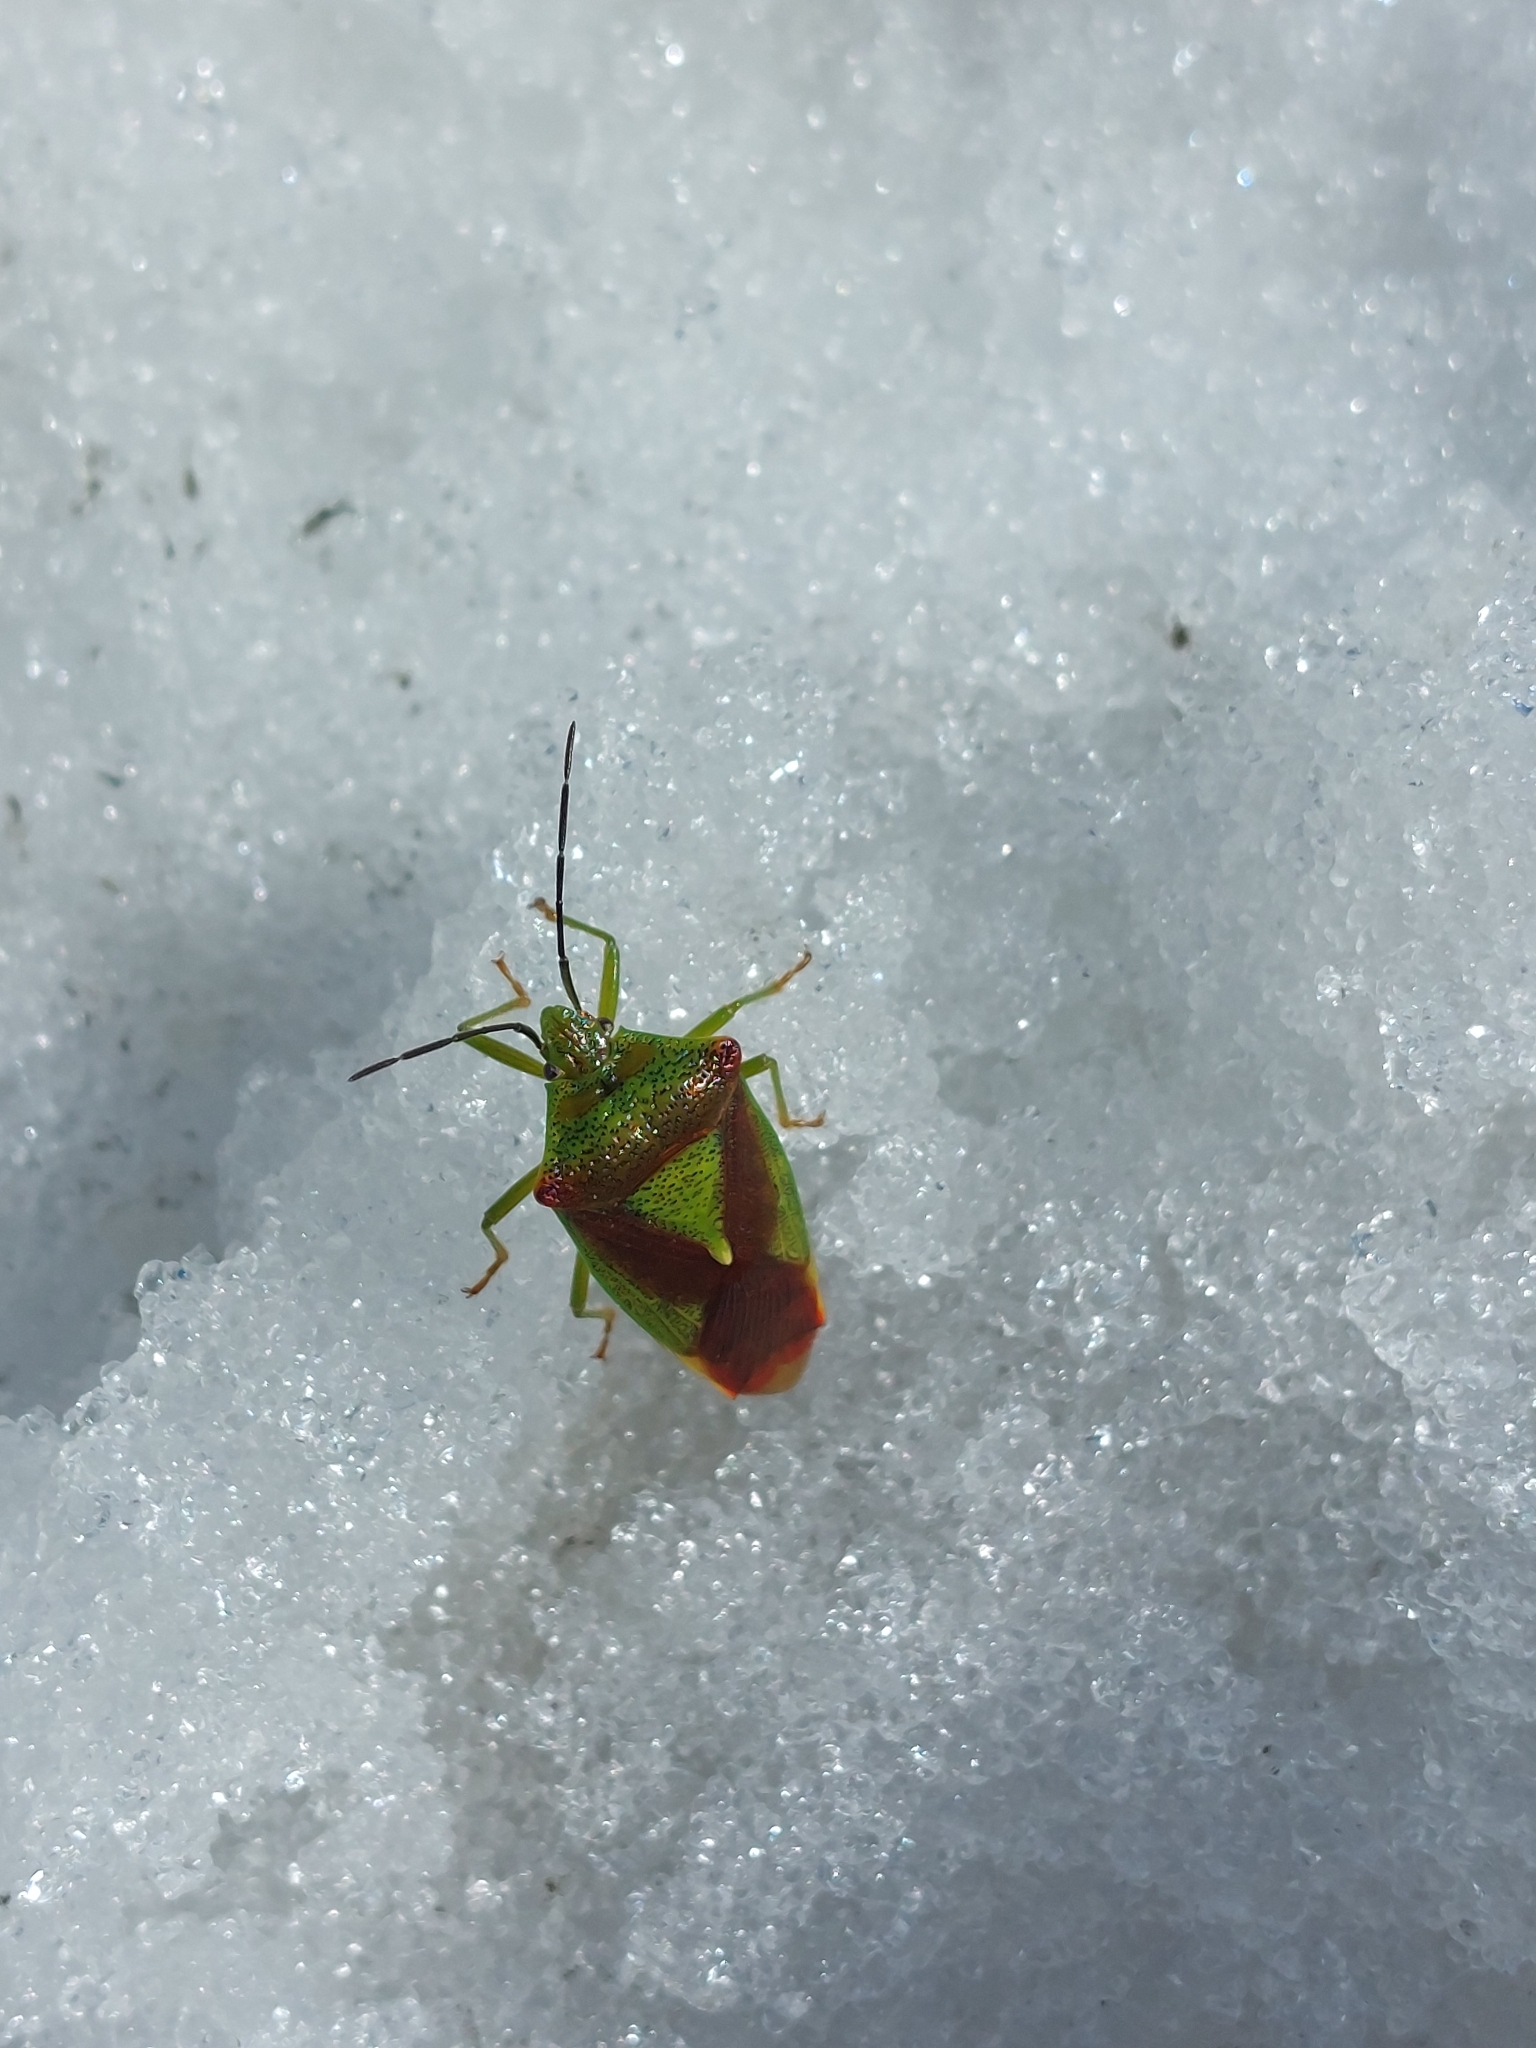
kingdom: Animalia
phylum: Arthropoda
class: Insecta
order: Hemiptera
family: Acanthosomatidae
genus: Acanthosoma
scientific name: Acanthosoma haemorrhoidale
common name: Hawthorn shieldbug
